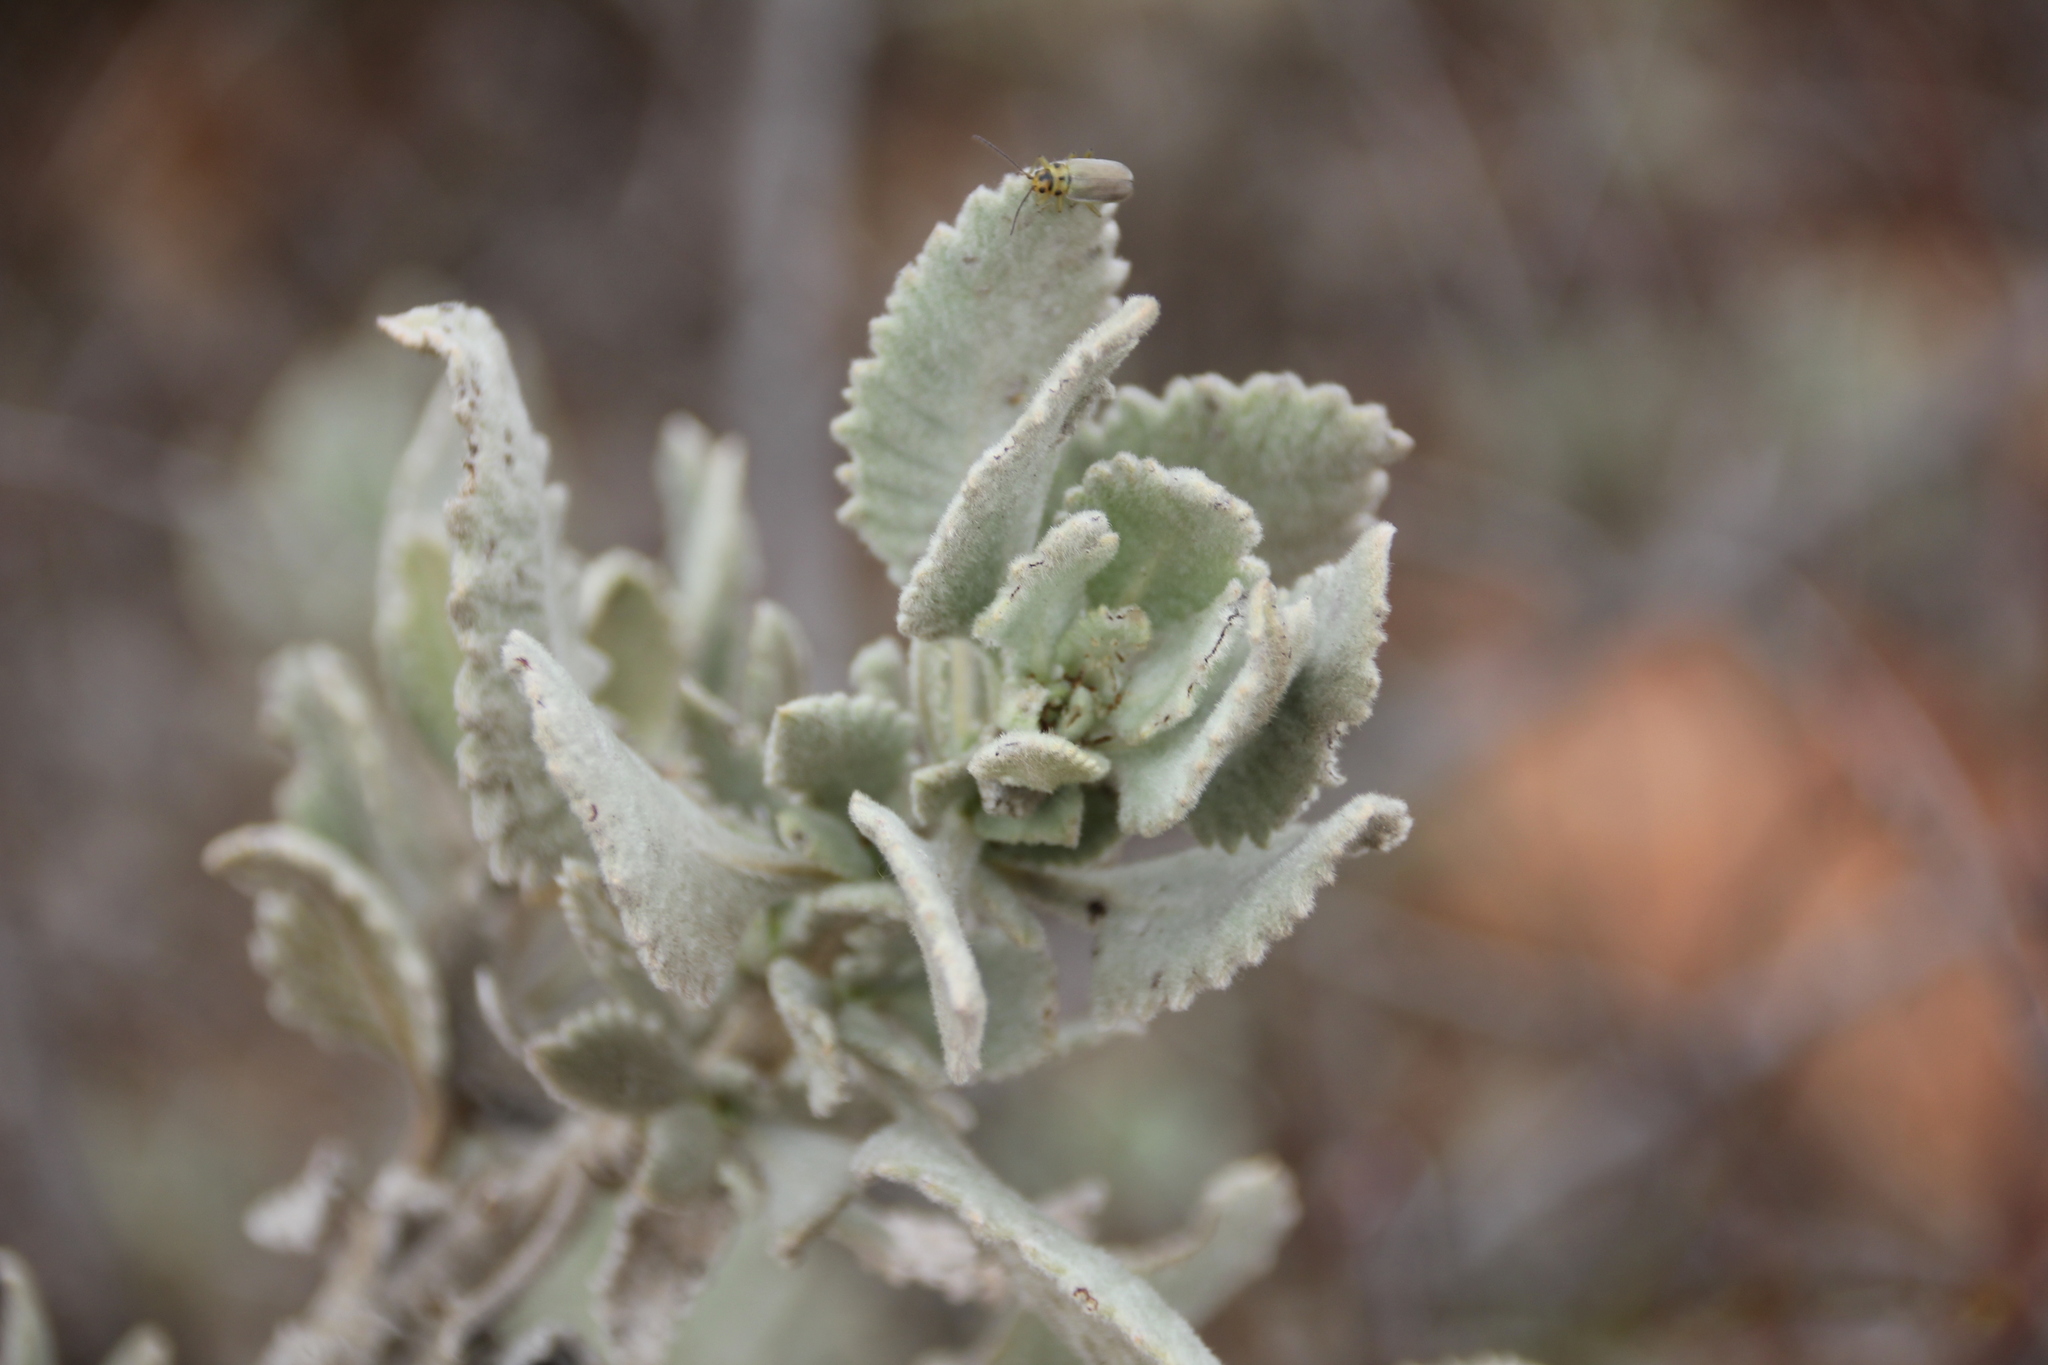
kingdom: Plantae
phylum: Tracheophyta
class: Magnoliopsida
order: Boraginales
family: Namaceae
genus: Eriodictyon
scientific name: Eriodictyon crassifolium
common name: Thick-leaf yerba-santa
